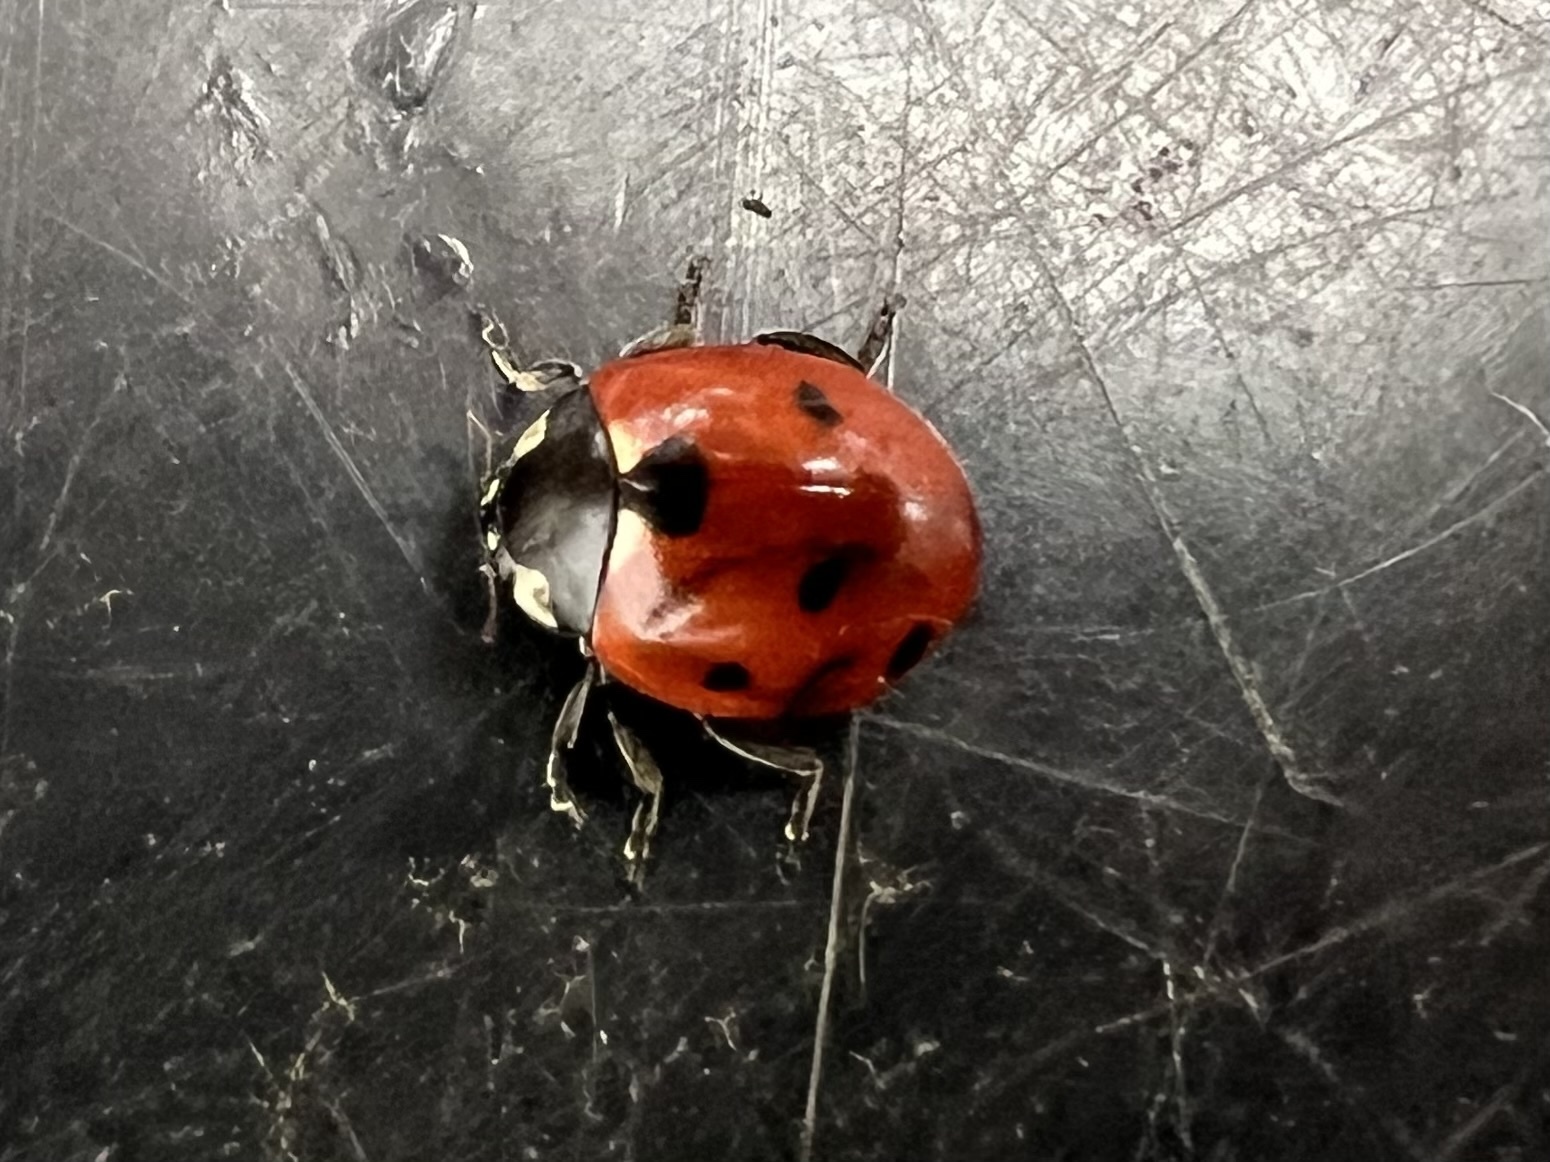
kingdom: Animalia
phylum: Arthropoda
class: Insecta
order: Coleoptera
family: Coccinellidae
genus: Coccinella
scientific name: Coccinella septempunctata
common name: Sevenspotted lady beetle
